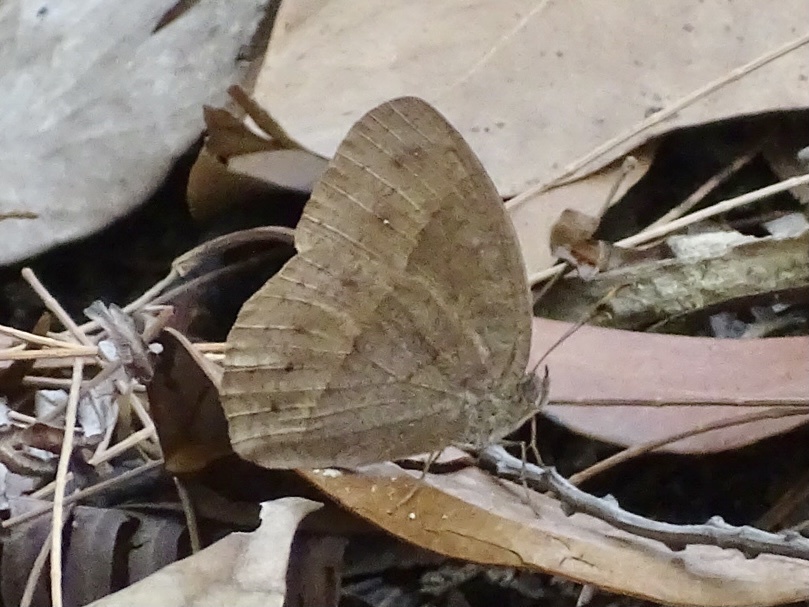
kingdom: Animalia
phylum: Arthropoda
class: Insecta
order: Lepidoptera
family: Nymphalidae
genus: Mycalesis
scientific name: Mycalesis mineus
